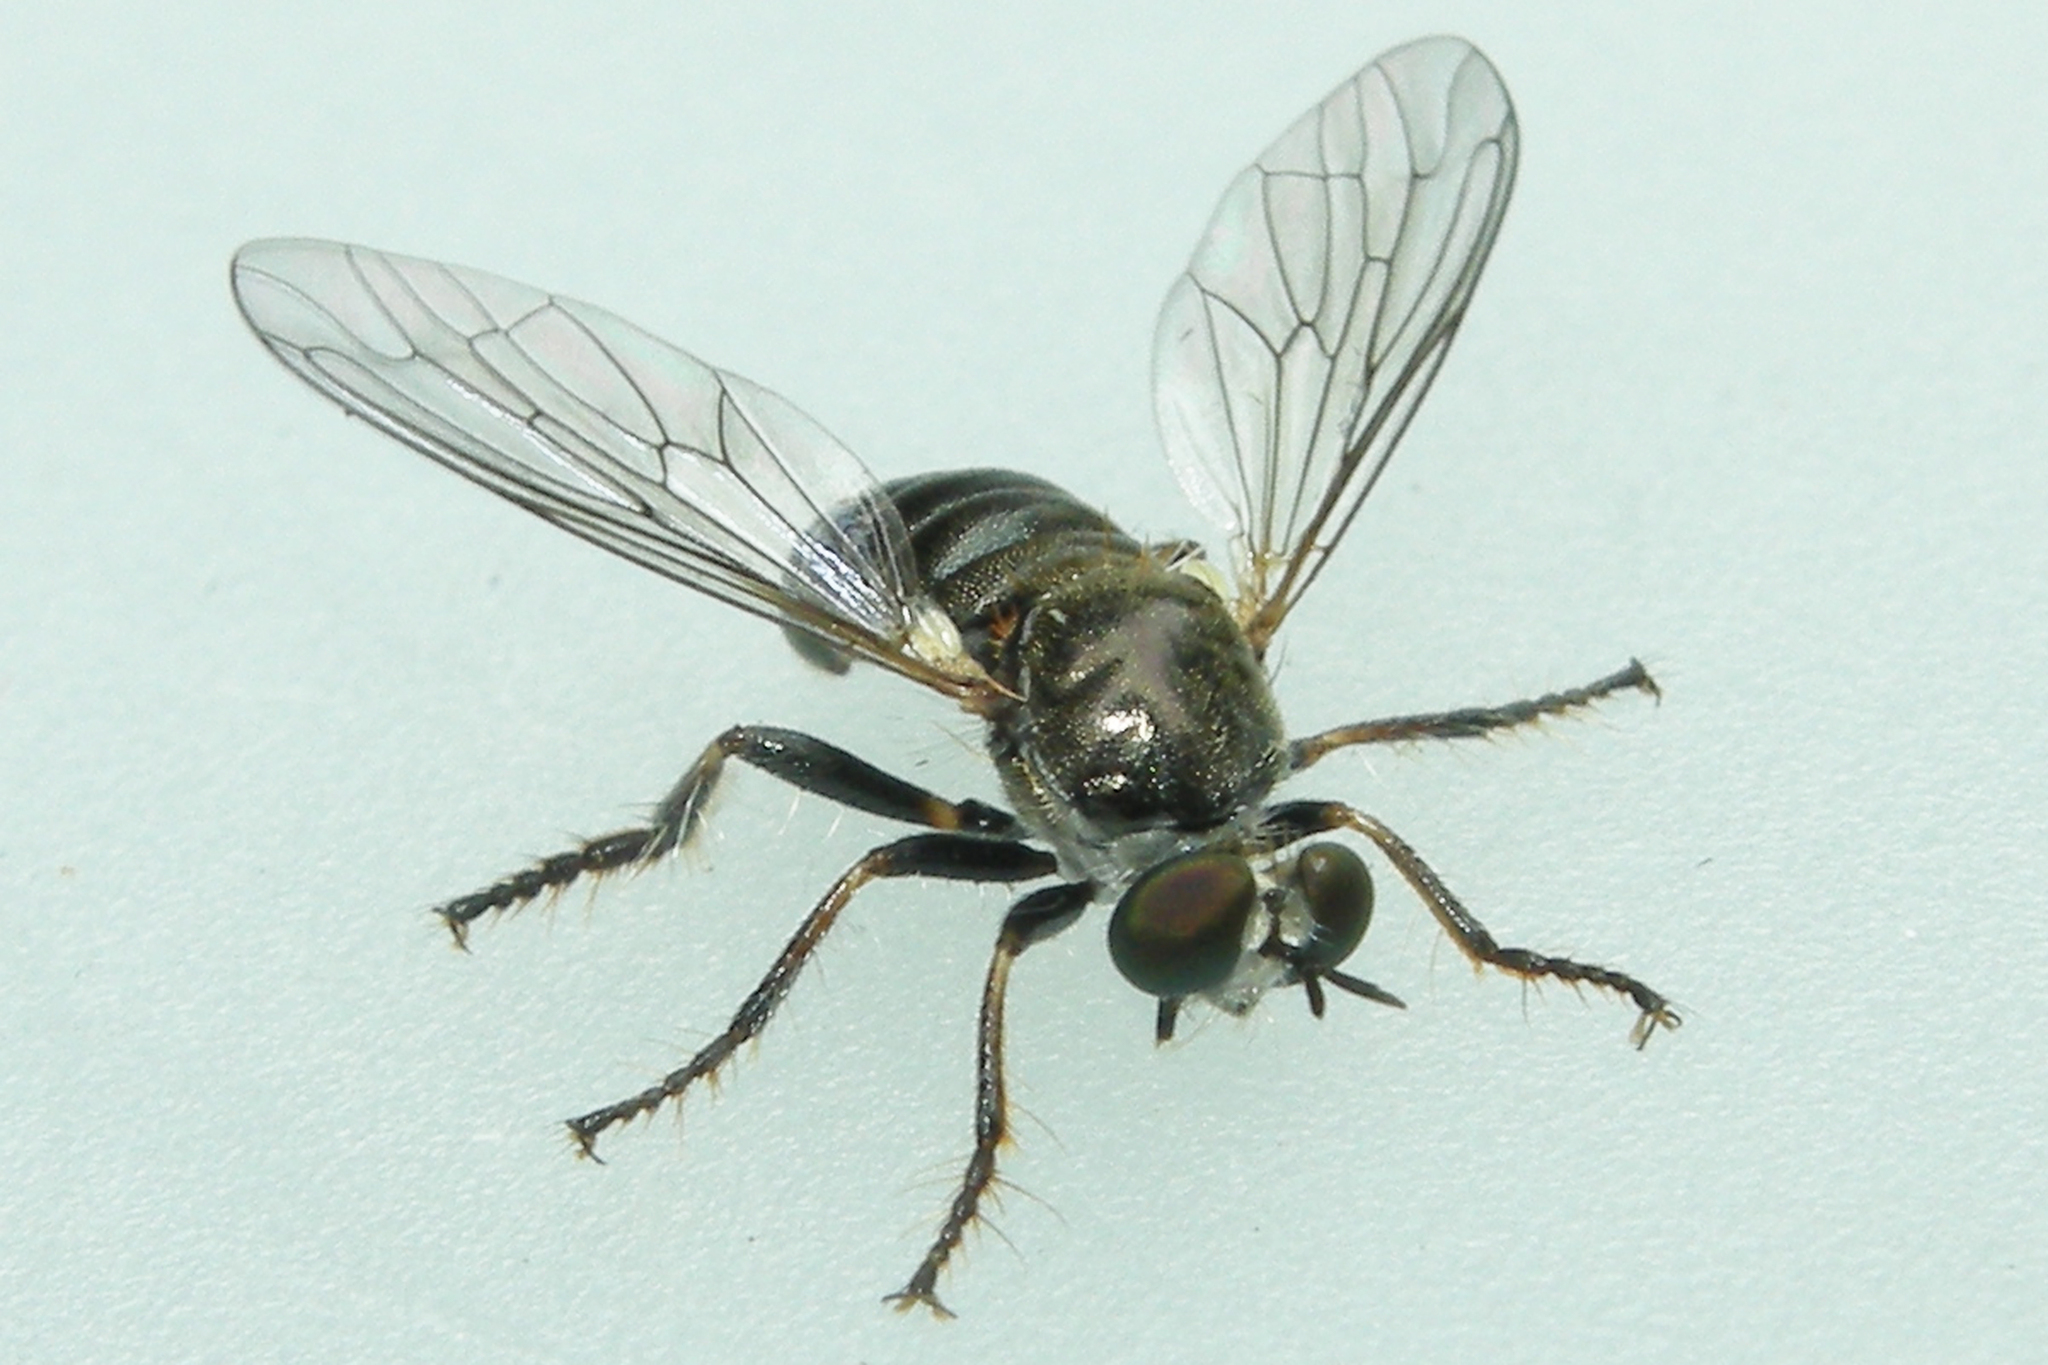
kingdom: Animalia
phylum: Arthropoda
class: Insecta
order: Diptera
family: Asilidae
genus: Atomosia
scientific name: Atomosia puella
